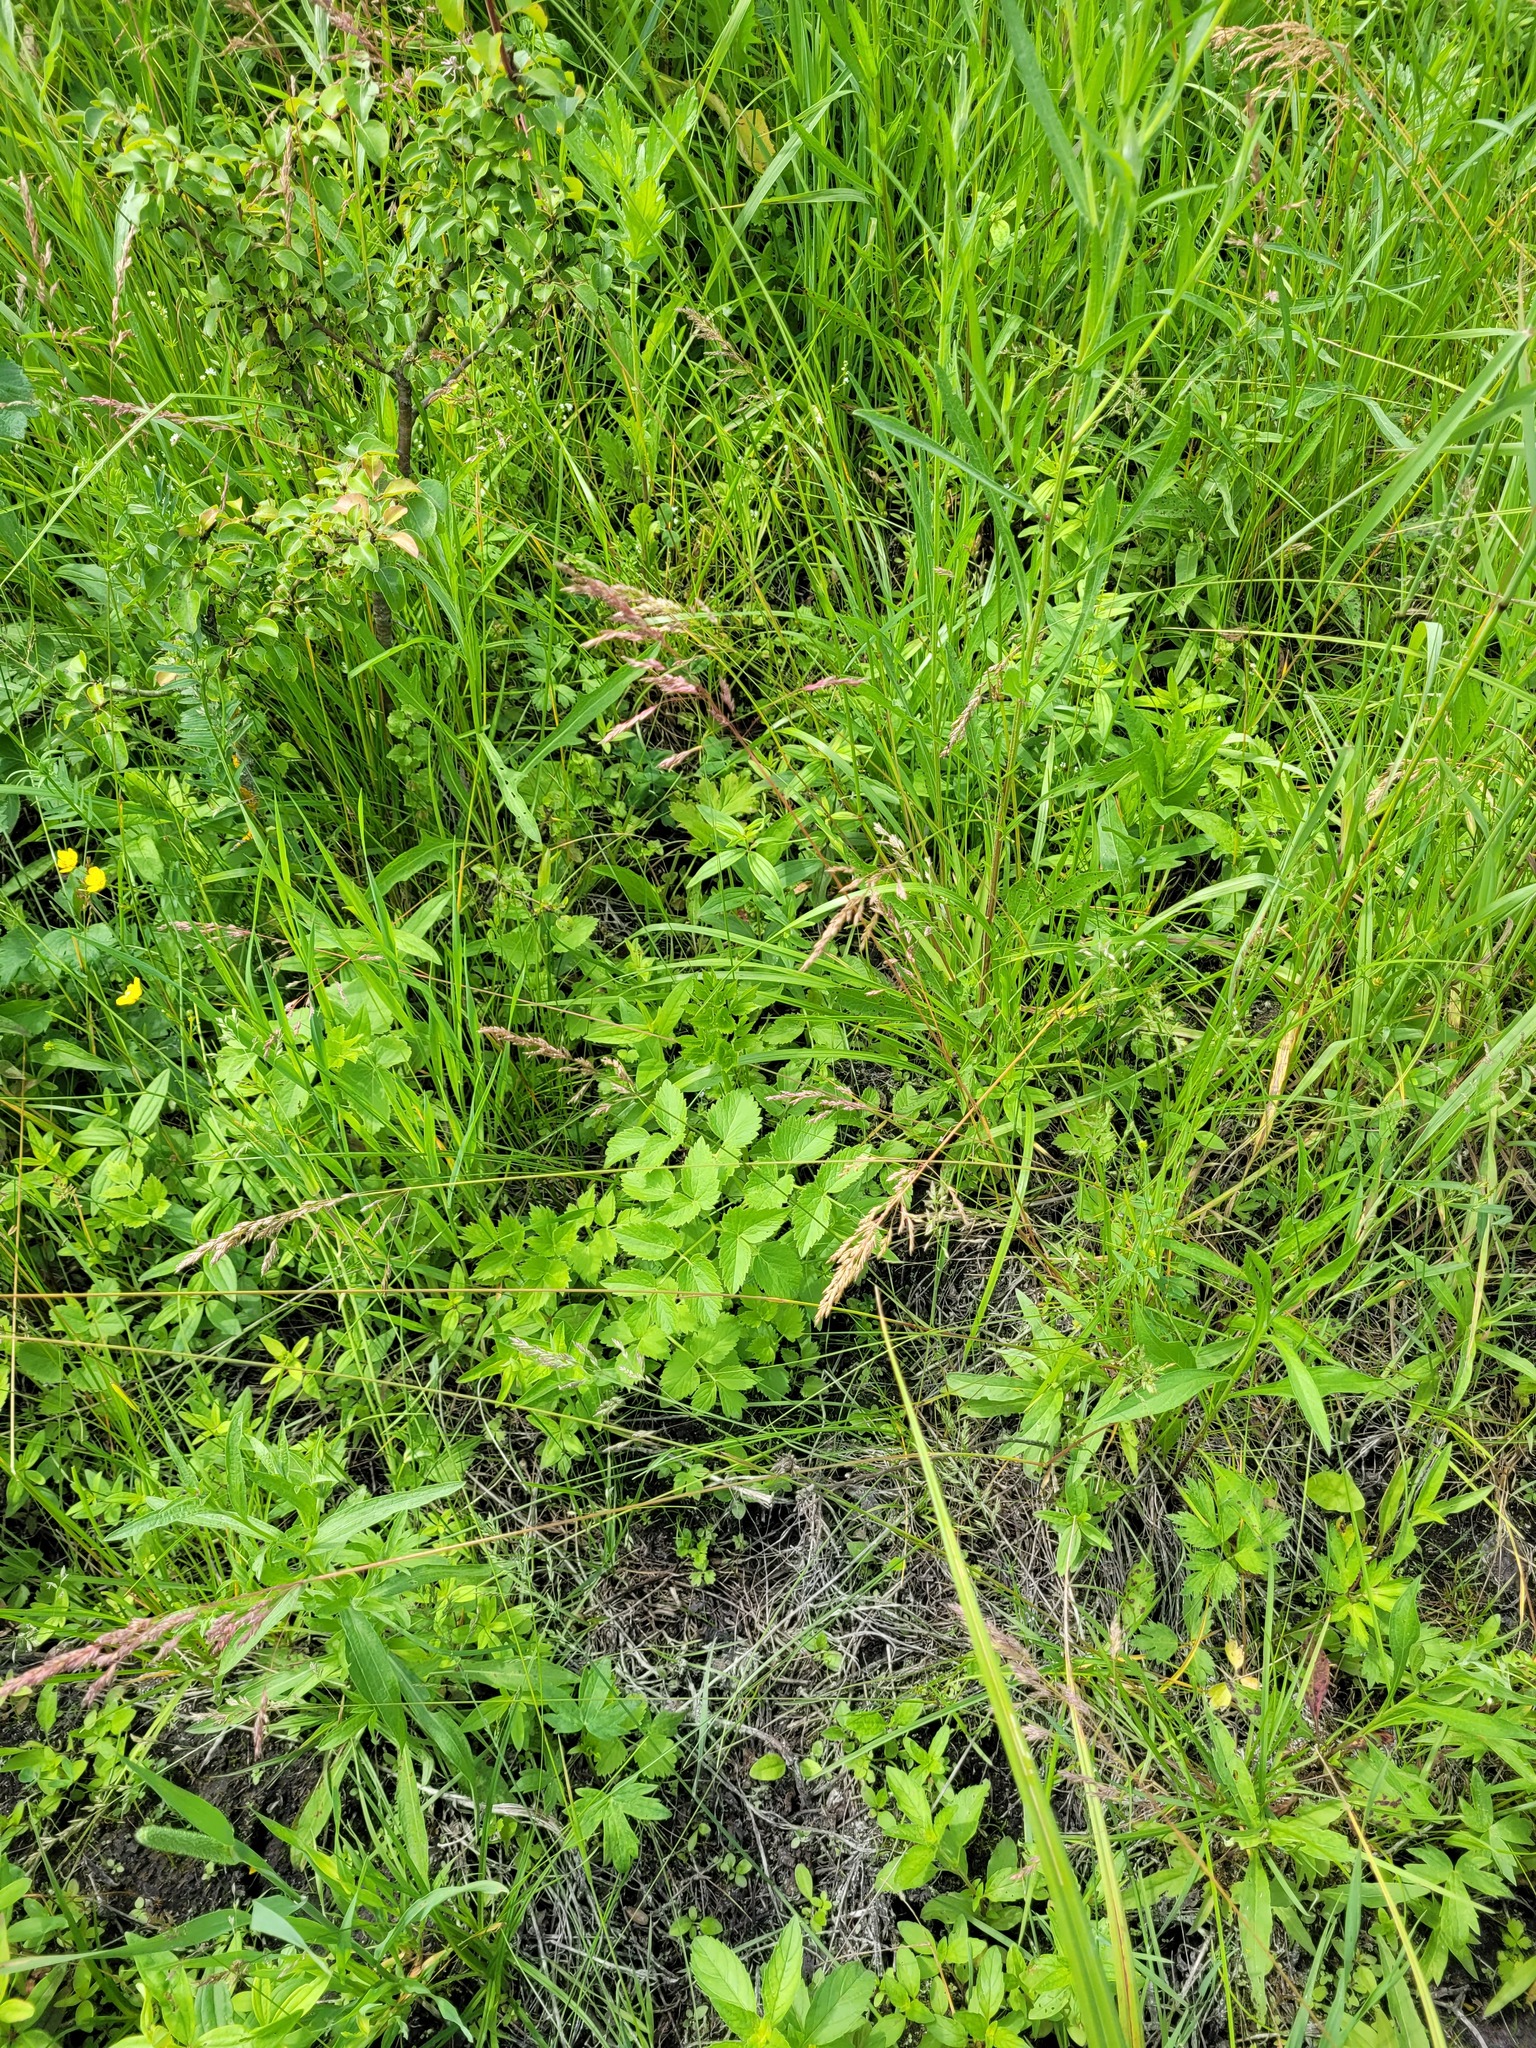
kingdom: Plantae
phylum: Tracheophyta
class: Magnoliopsida
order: Apiales
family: Apiaceae
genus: Ostericum
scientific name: Ostericum palustre
